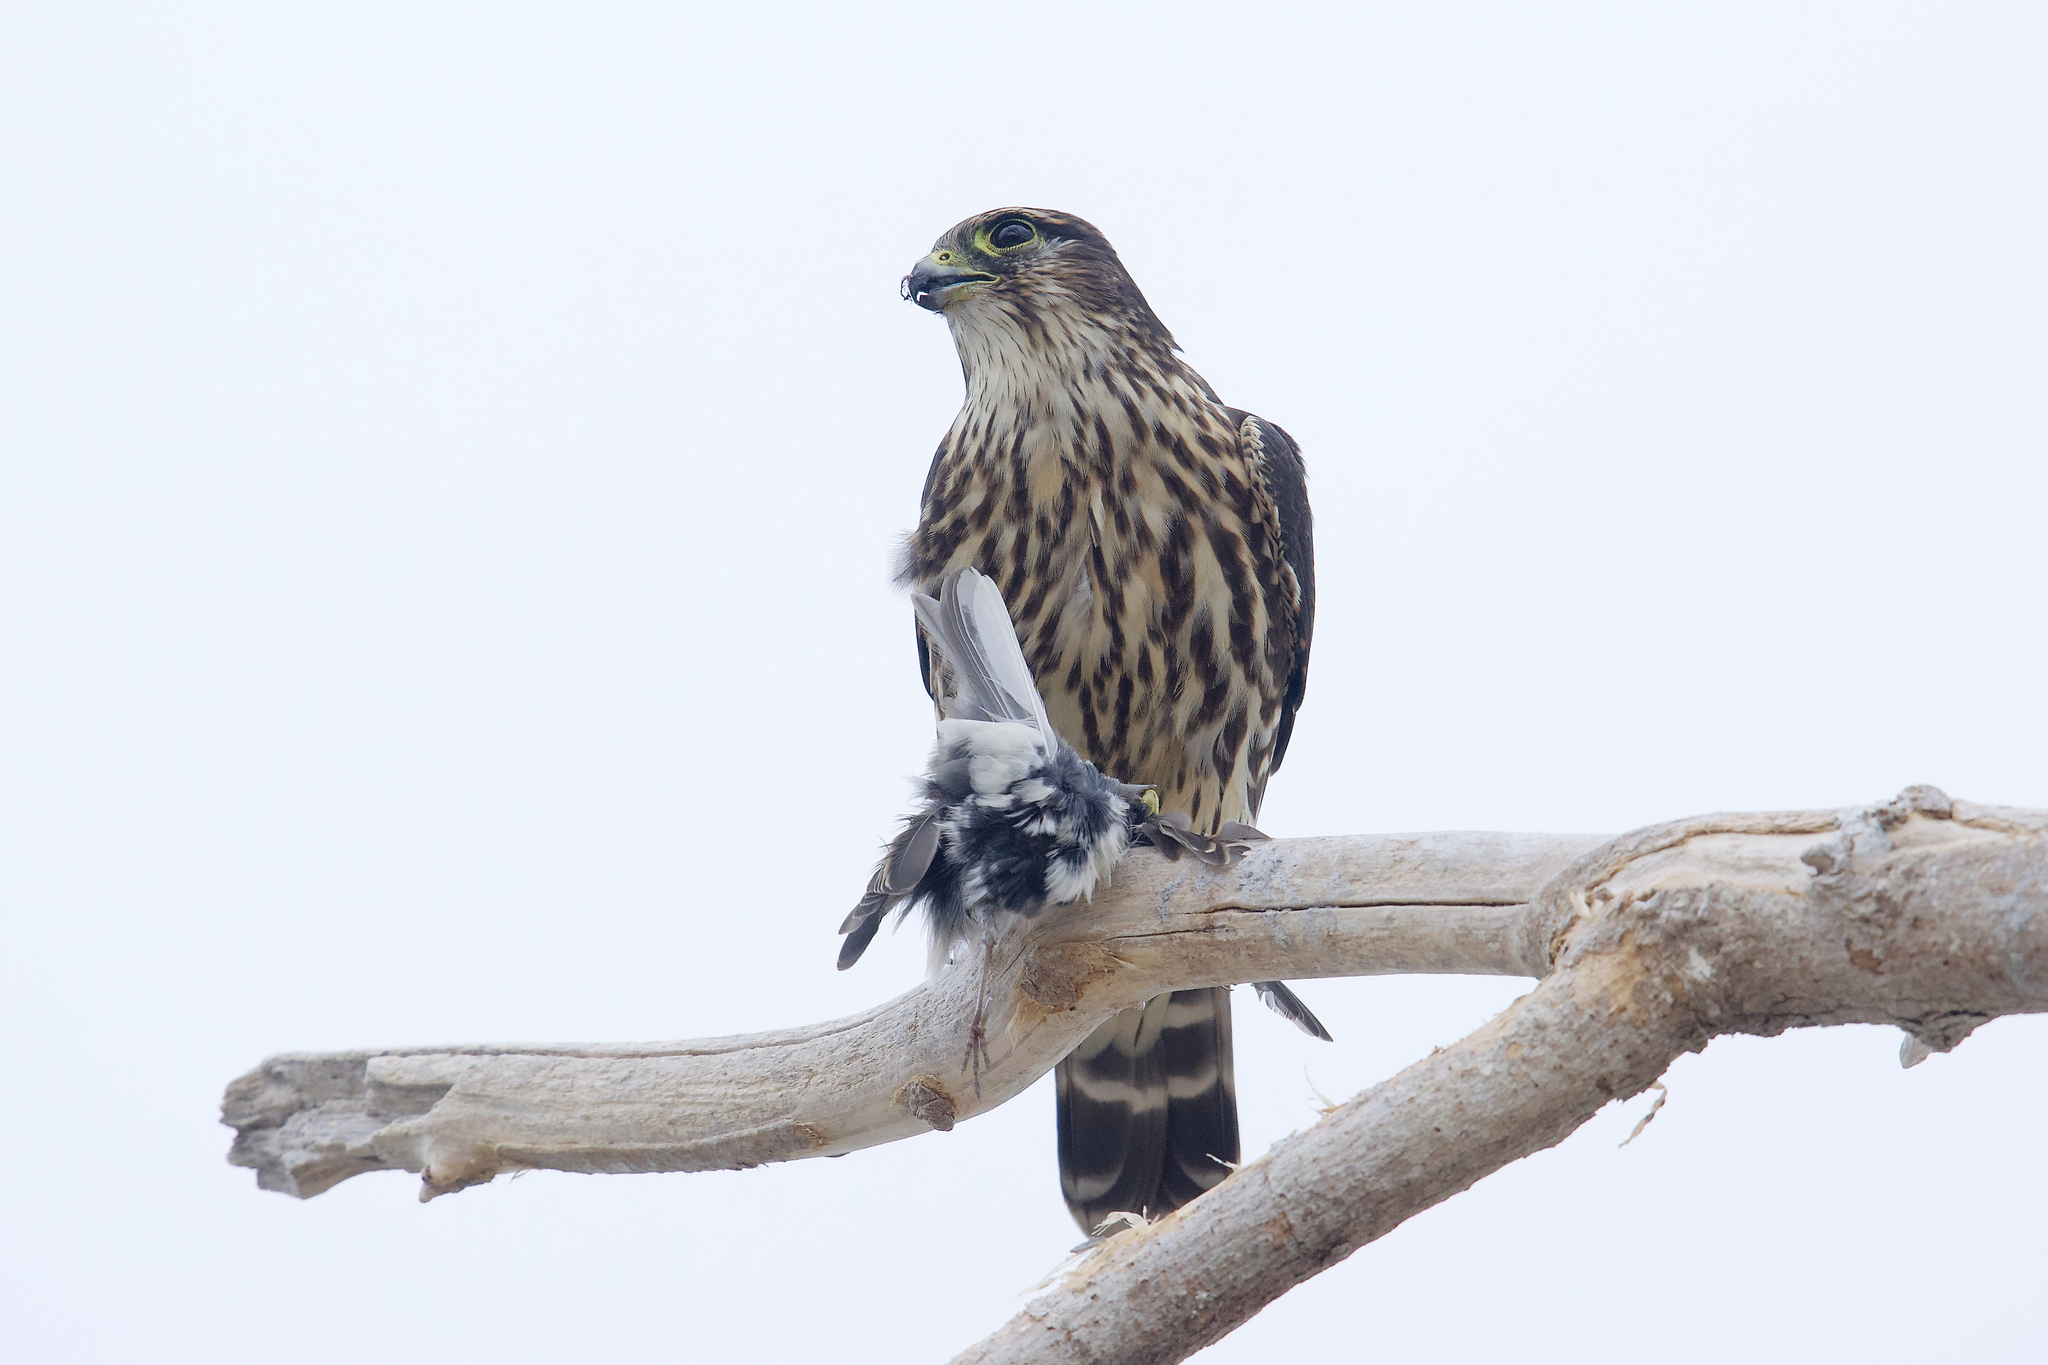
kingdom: Animalia
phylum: Chordata
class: Aves
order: Falconiformes
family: Falconidae
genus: Falco
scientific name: Falco columbarius
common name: Merlin
